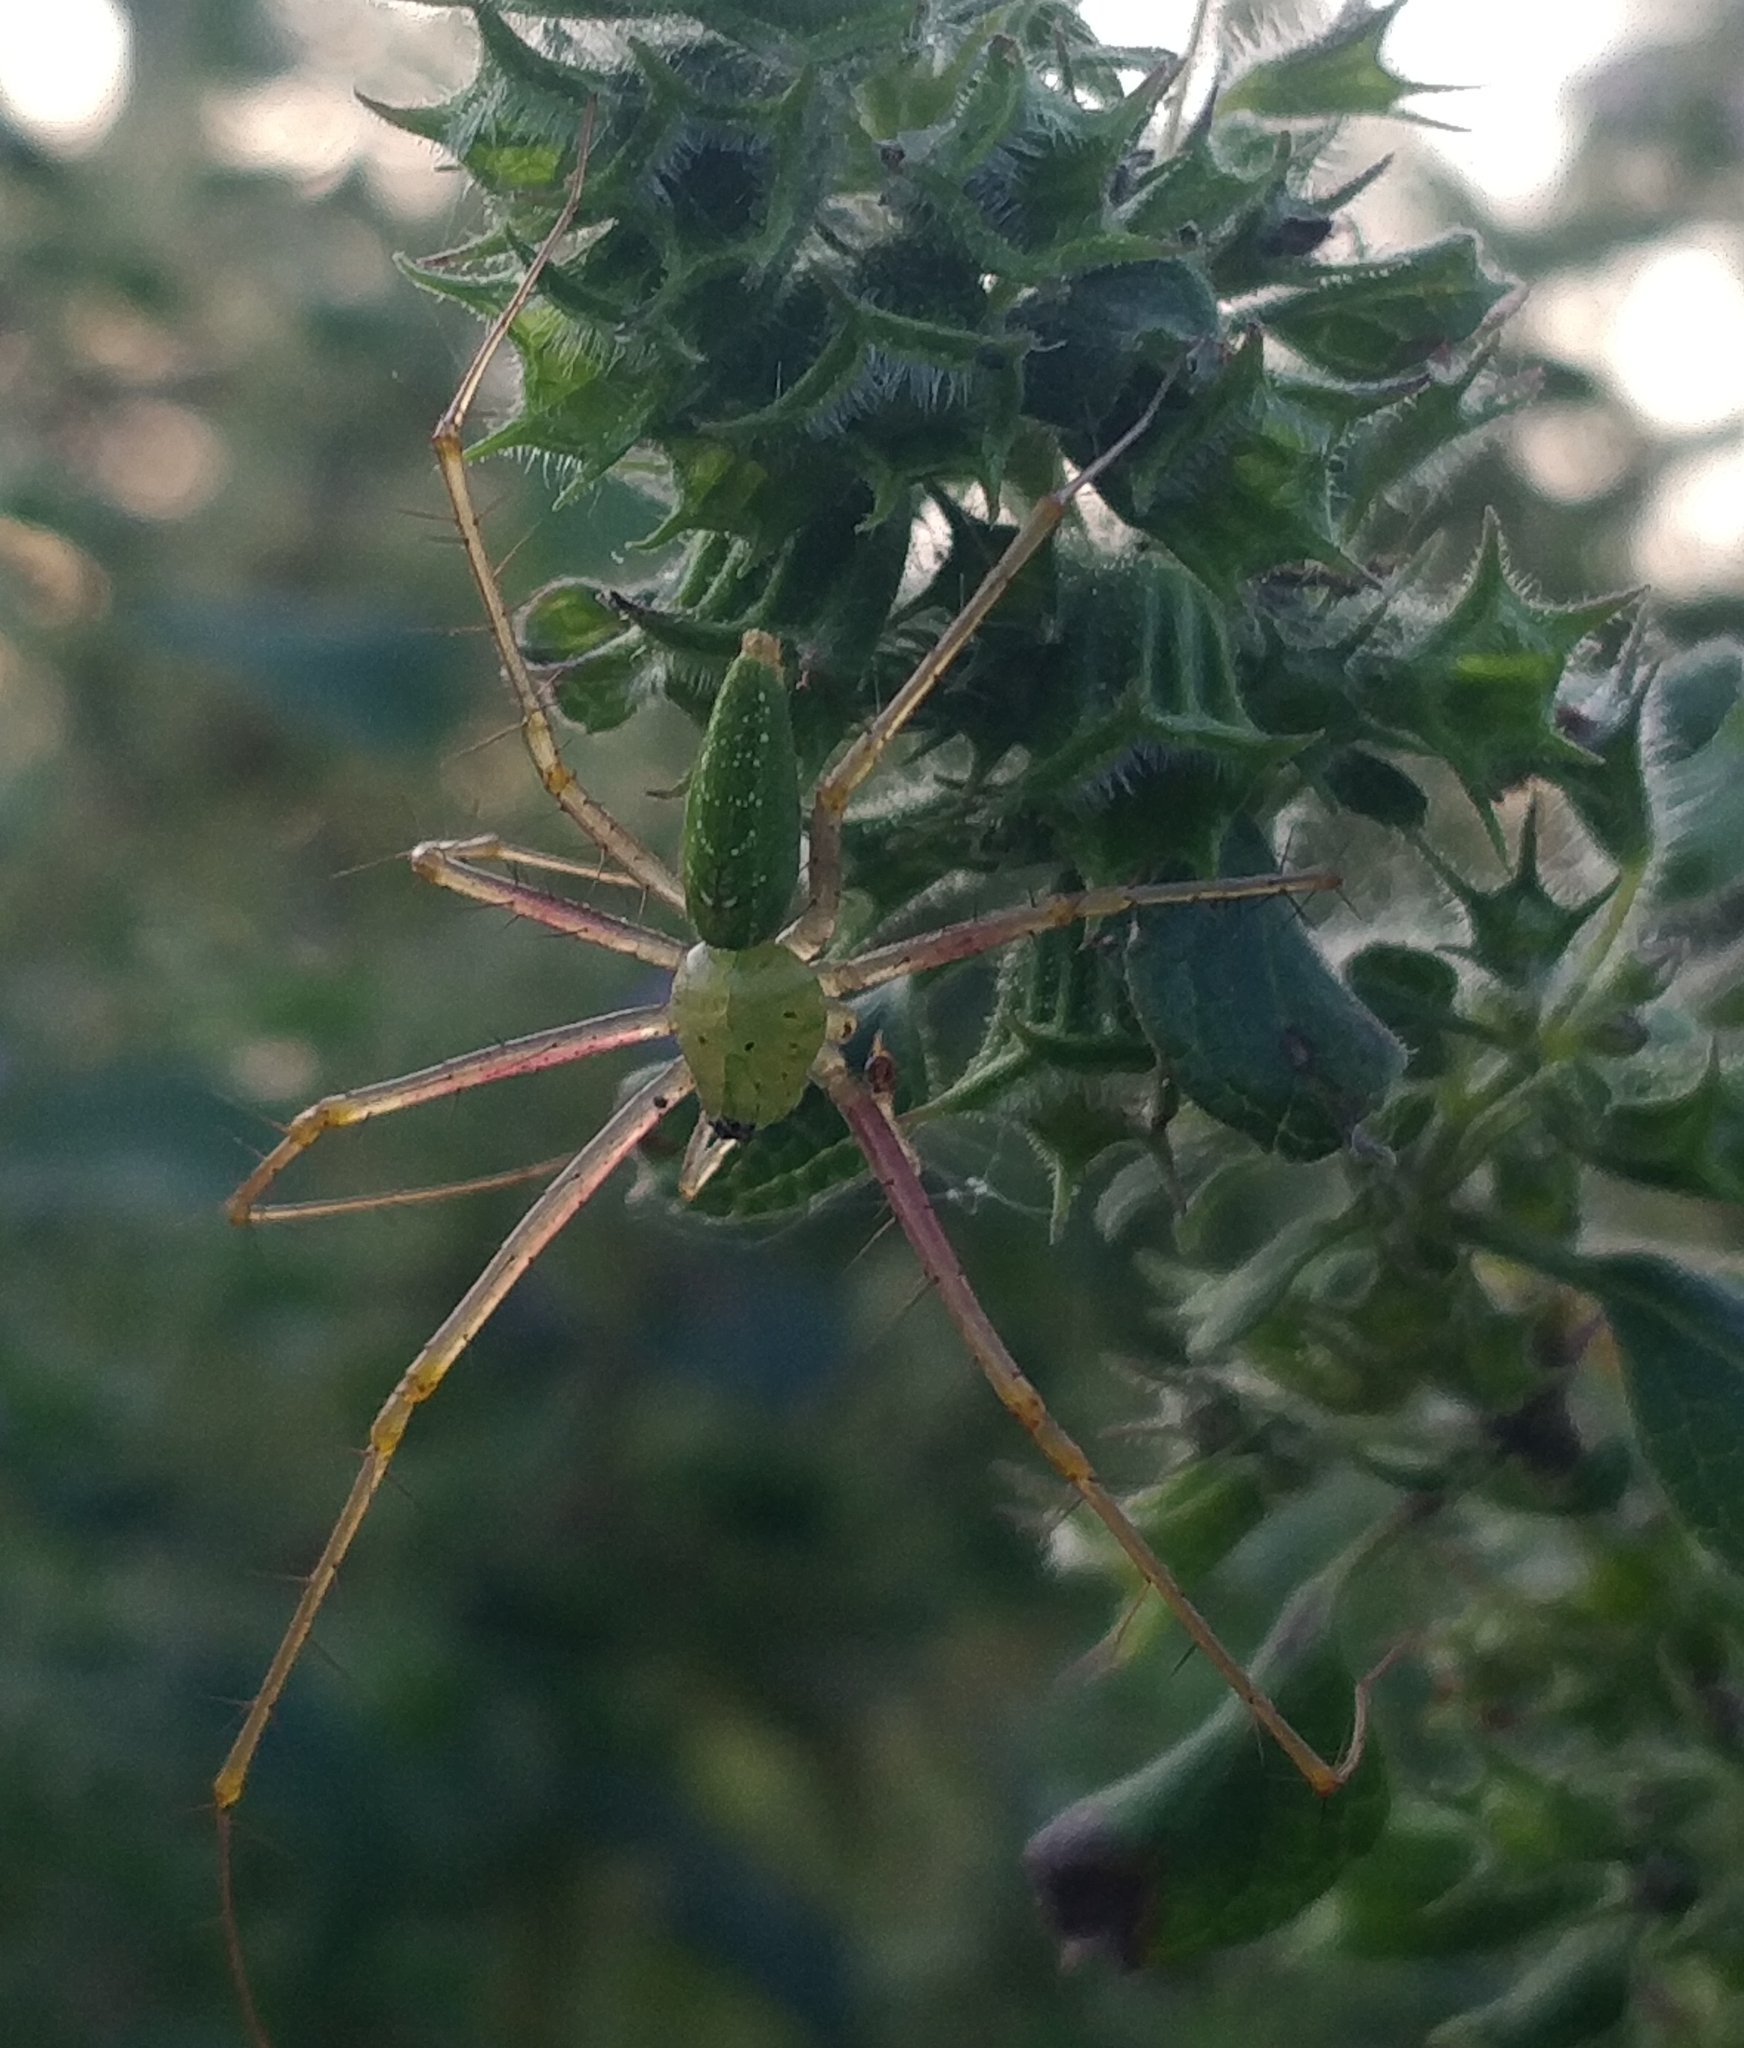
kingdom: Animalia
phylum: Arthropoda
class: Arachnida
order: Araneae
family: Oxyopidae
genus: Peucetia
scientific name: Peucetia viridana
